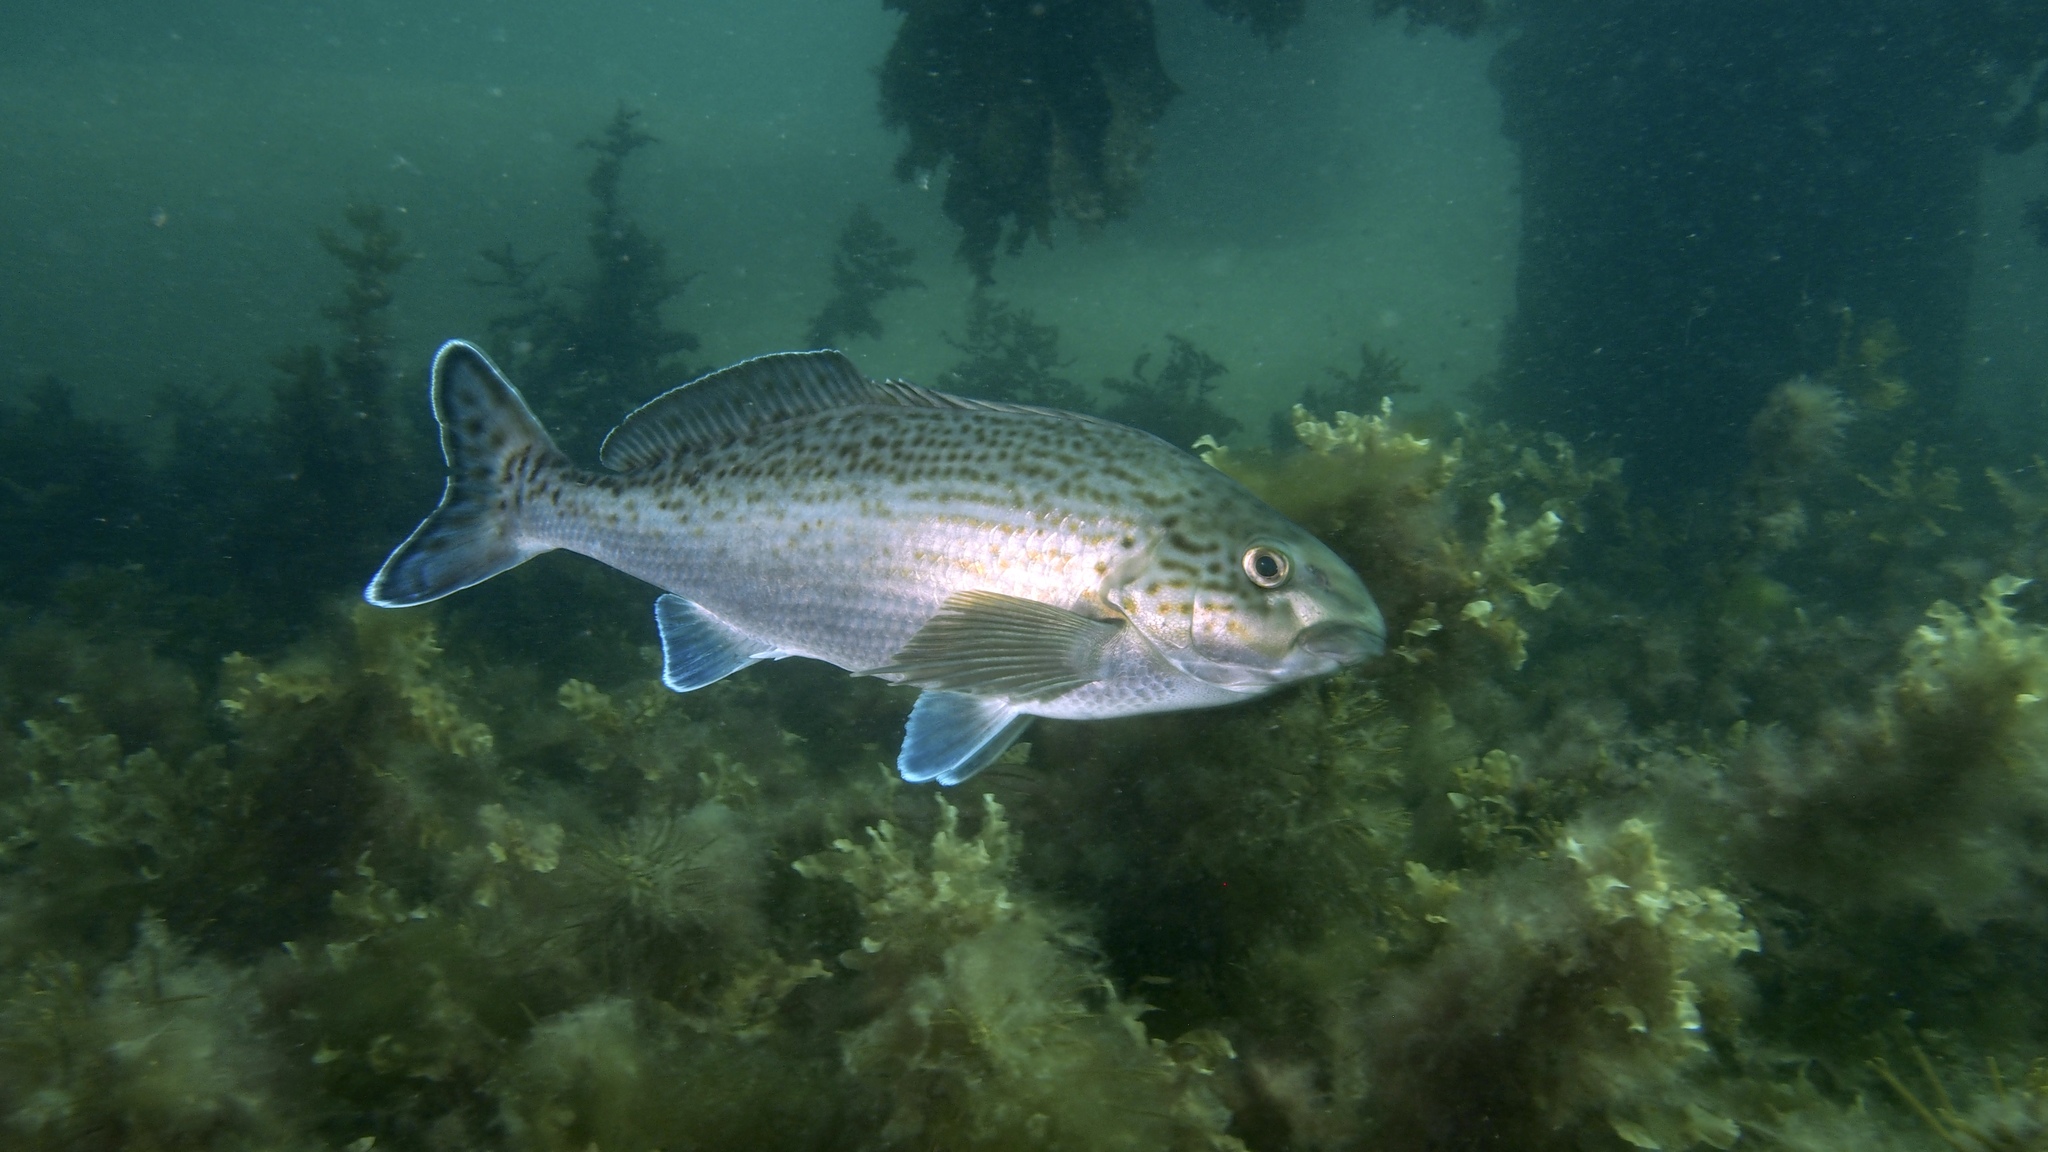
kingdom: Animalia
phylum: Chordata
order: Perciformes
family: Cheilodactylidae
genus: Dactylophora
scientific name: Dactylophora nigricans
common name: Dusky morwong
